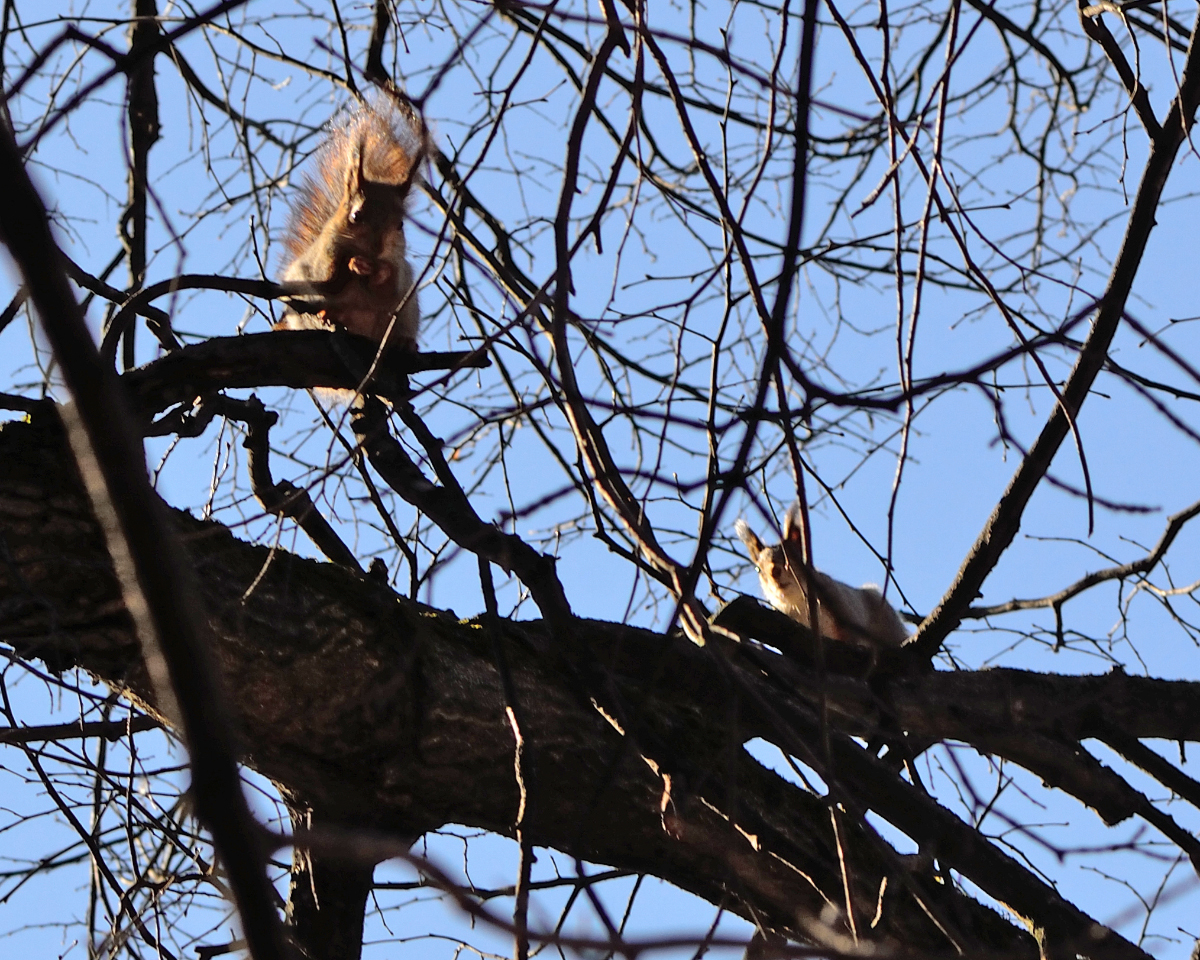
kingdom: Animalia
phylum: Chordata
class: Mammalia
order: Rodentia
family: Sciuridae
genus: Sciurus
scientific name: Sciurus vulgaris
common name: Eurasian red squirrel
